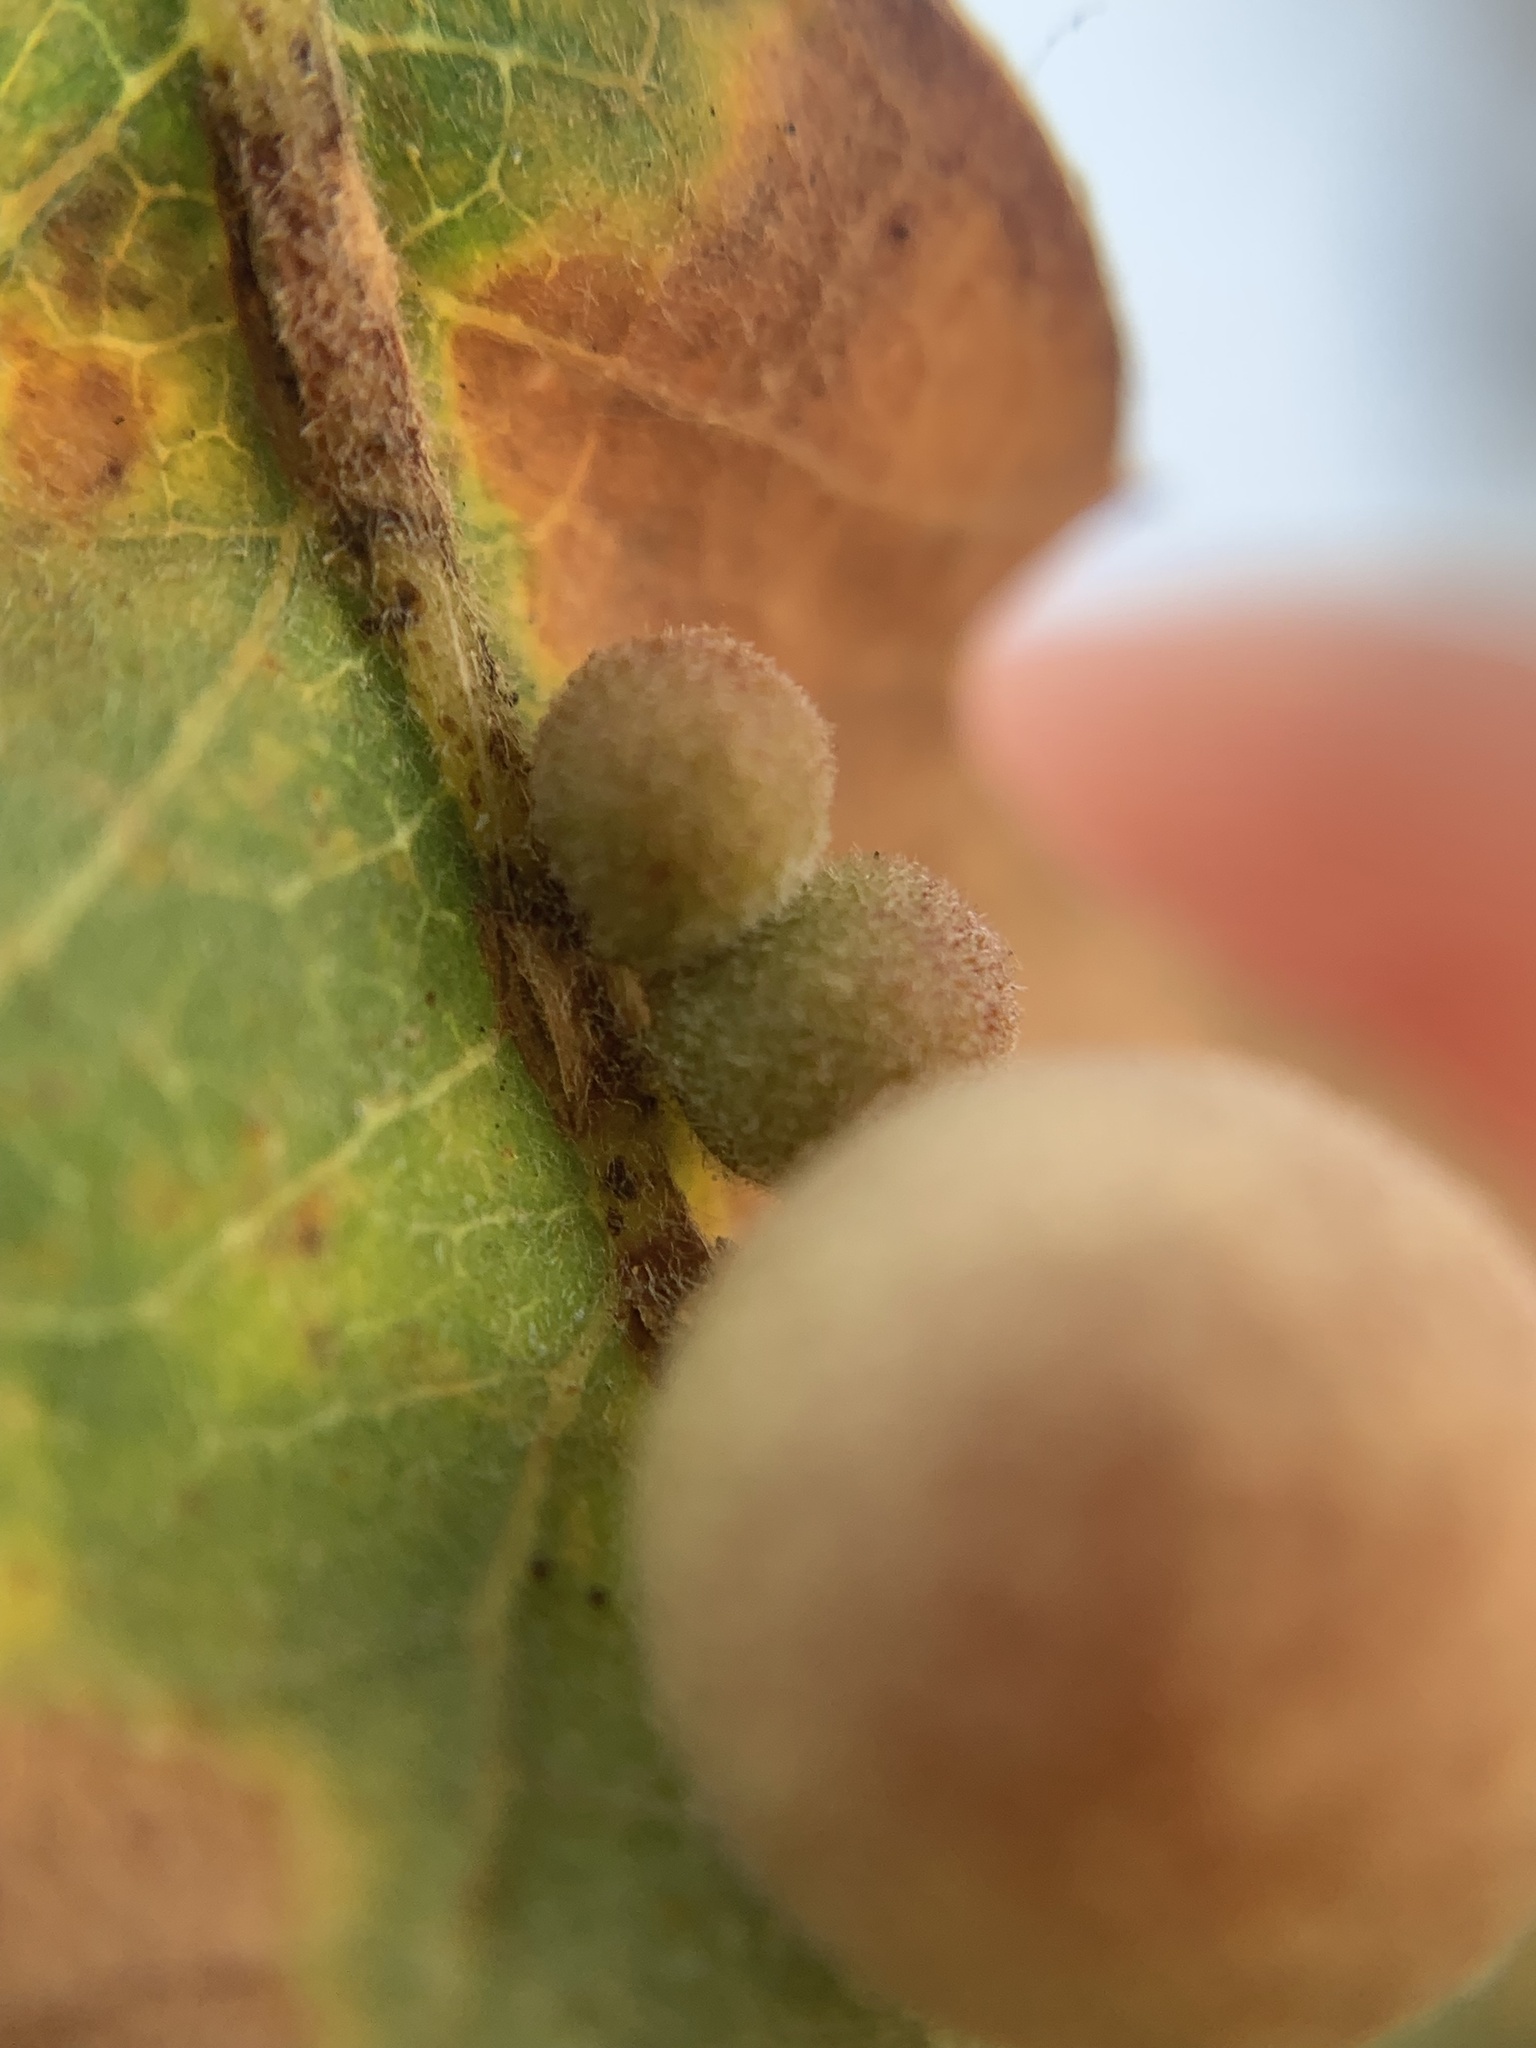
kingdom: Animalia
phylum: Arthropoda
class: Insecta
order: Hymenoptera
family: Cynipidae
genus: Andricus
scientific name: Andricus
